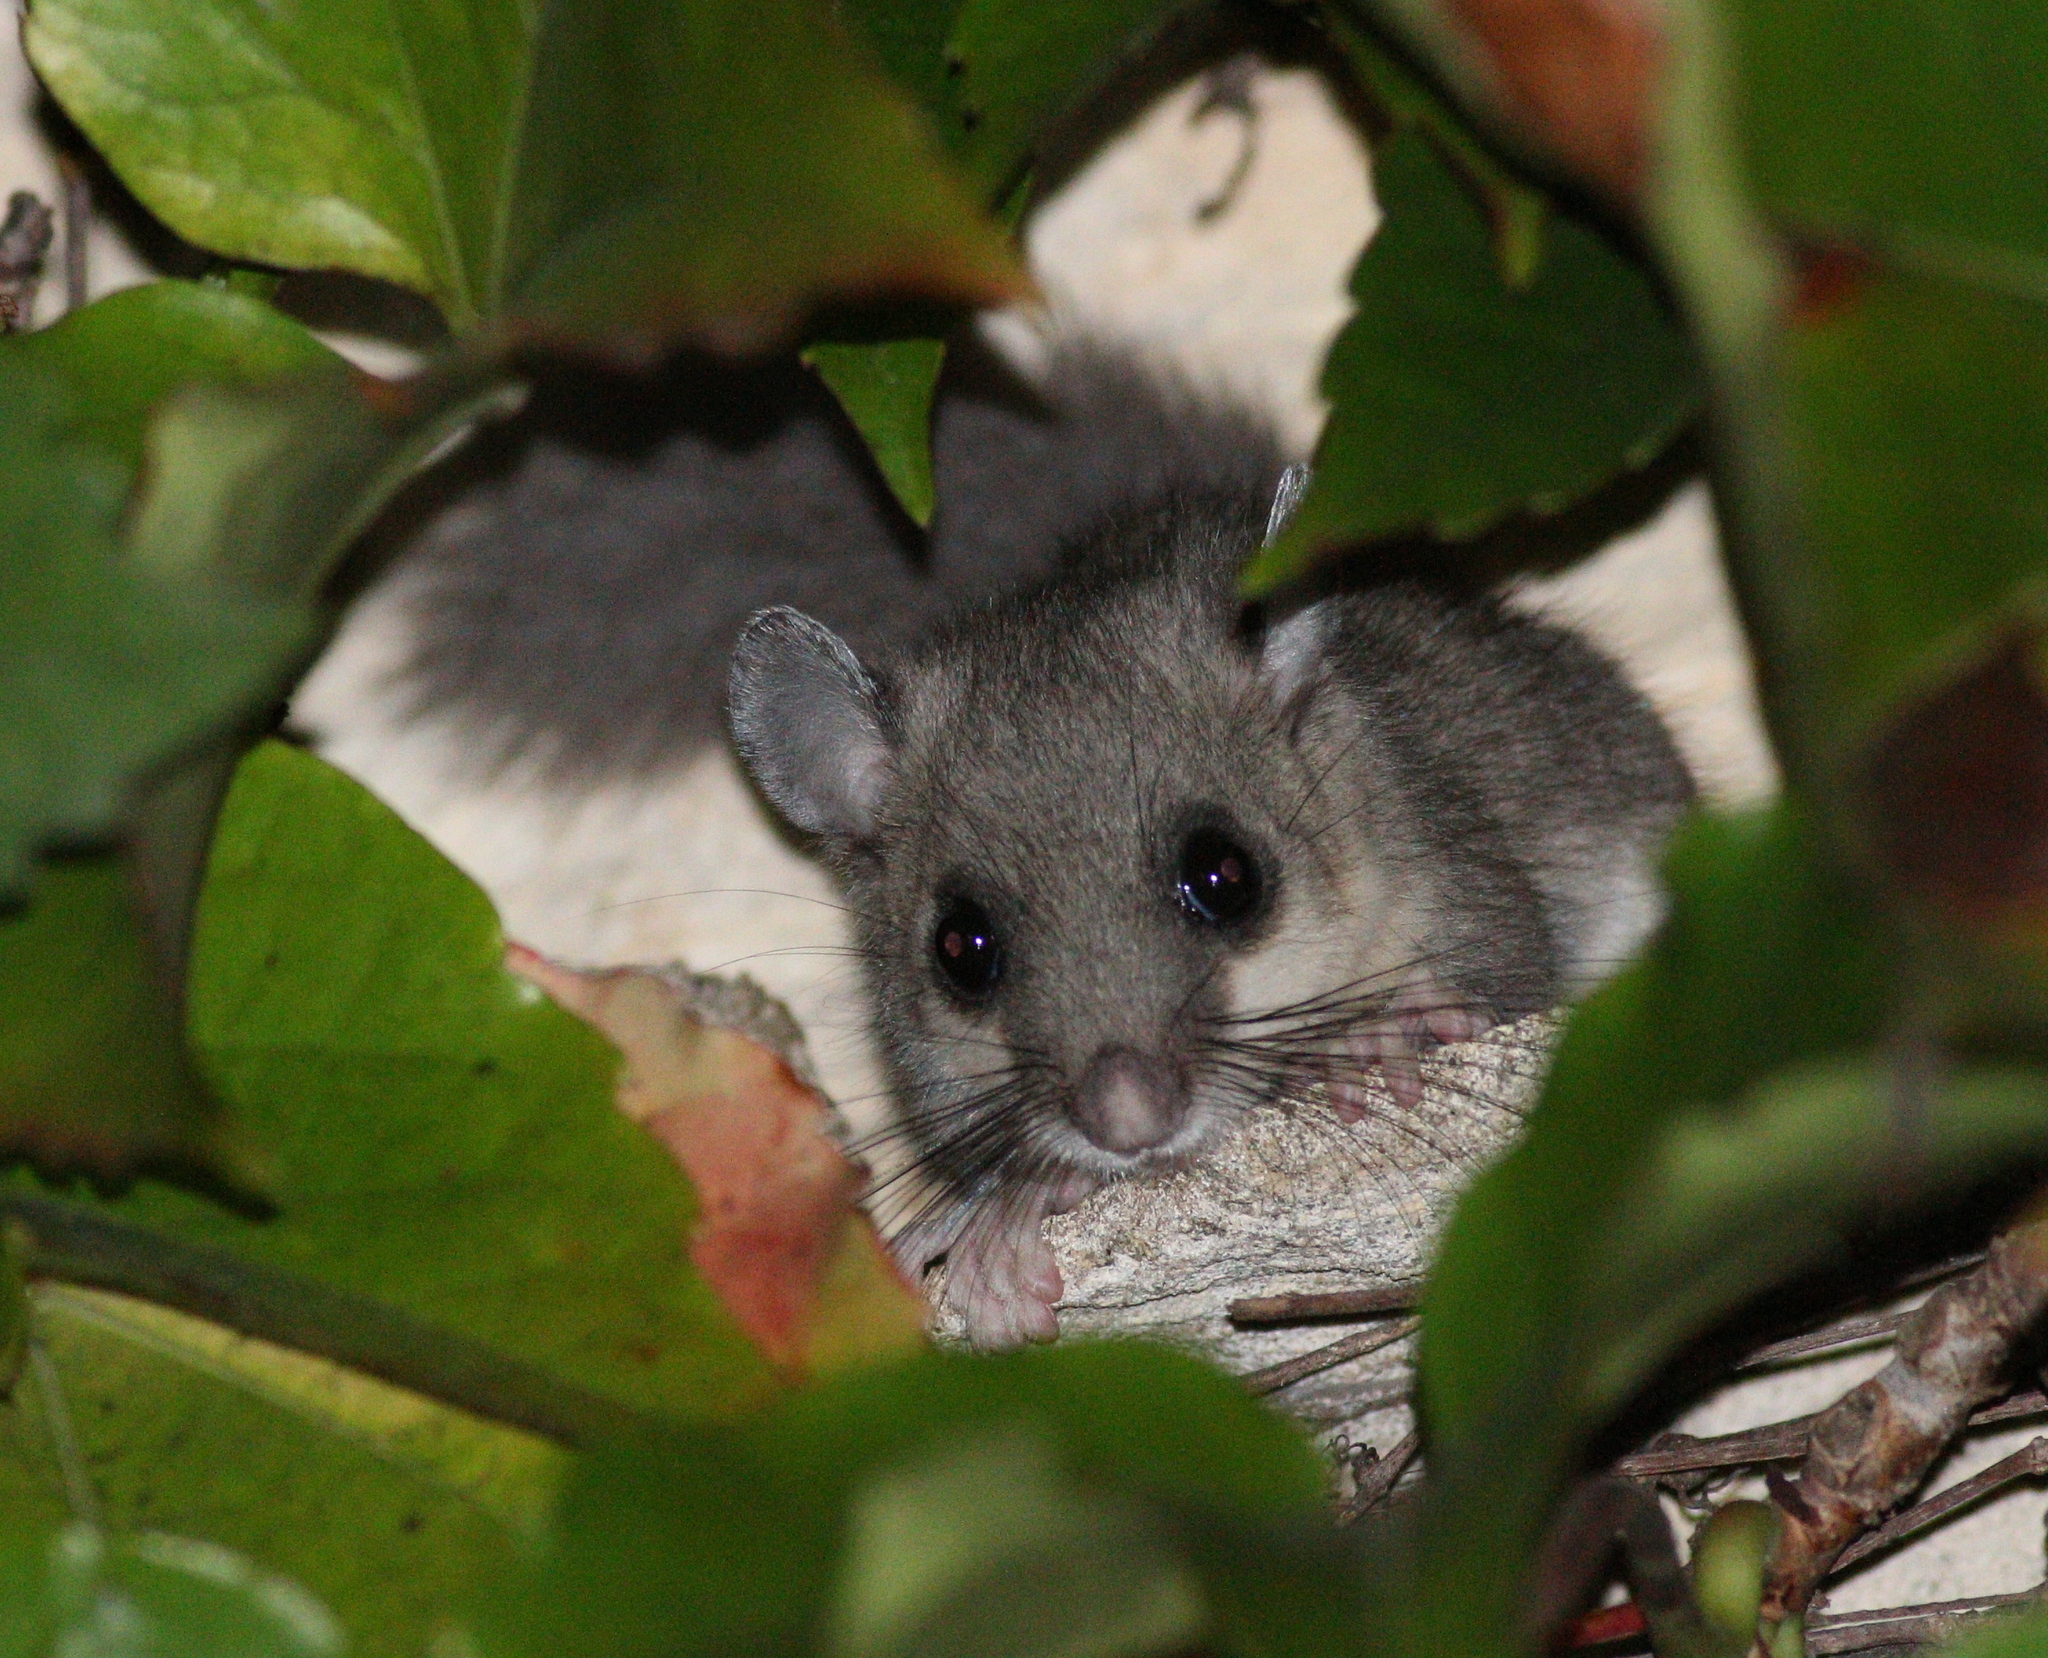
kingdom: Animalia
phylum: Chordata
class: Mammalia
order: Rodentia
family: Gliridae
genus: Glis
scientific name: Glis glis
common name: Fat dormouse
